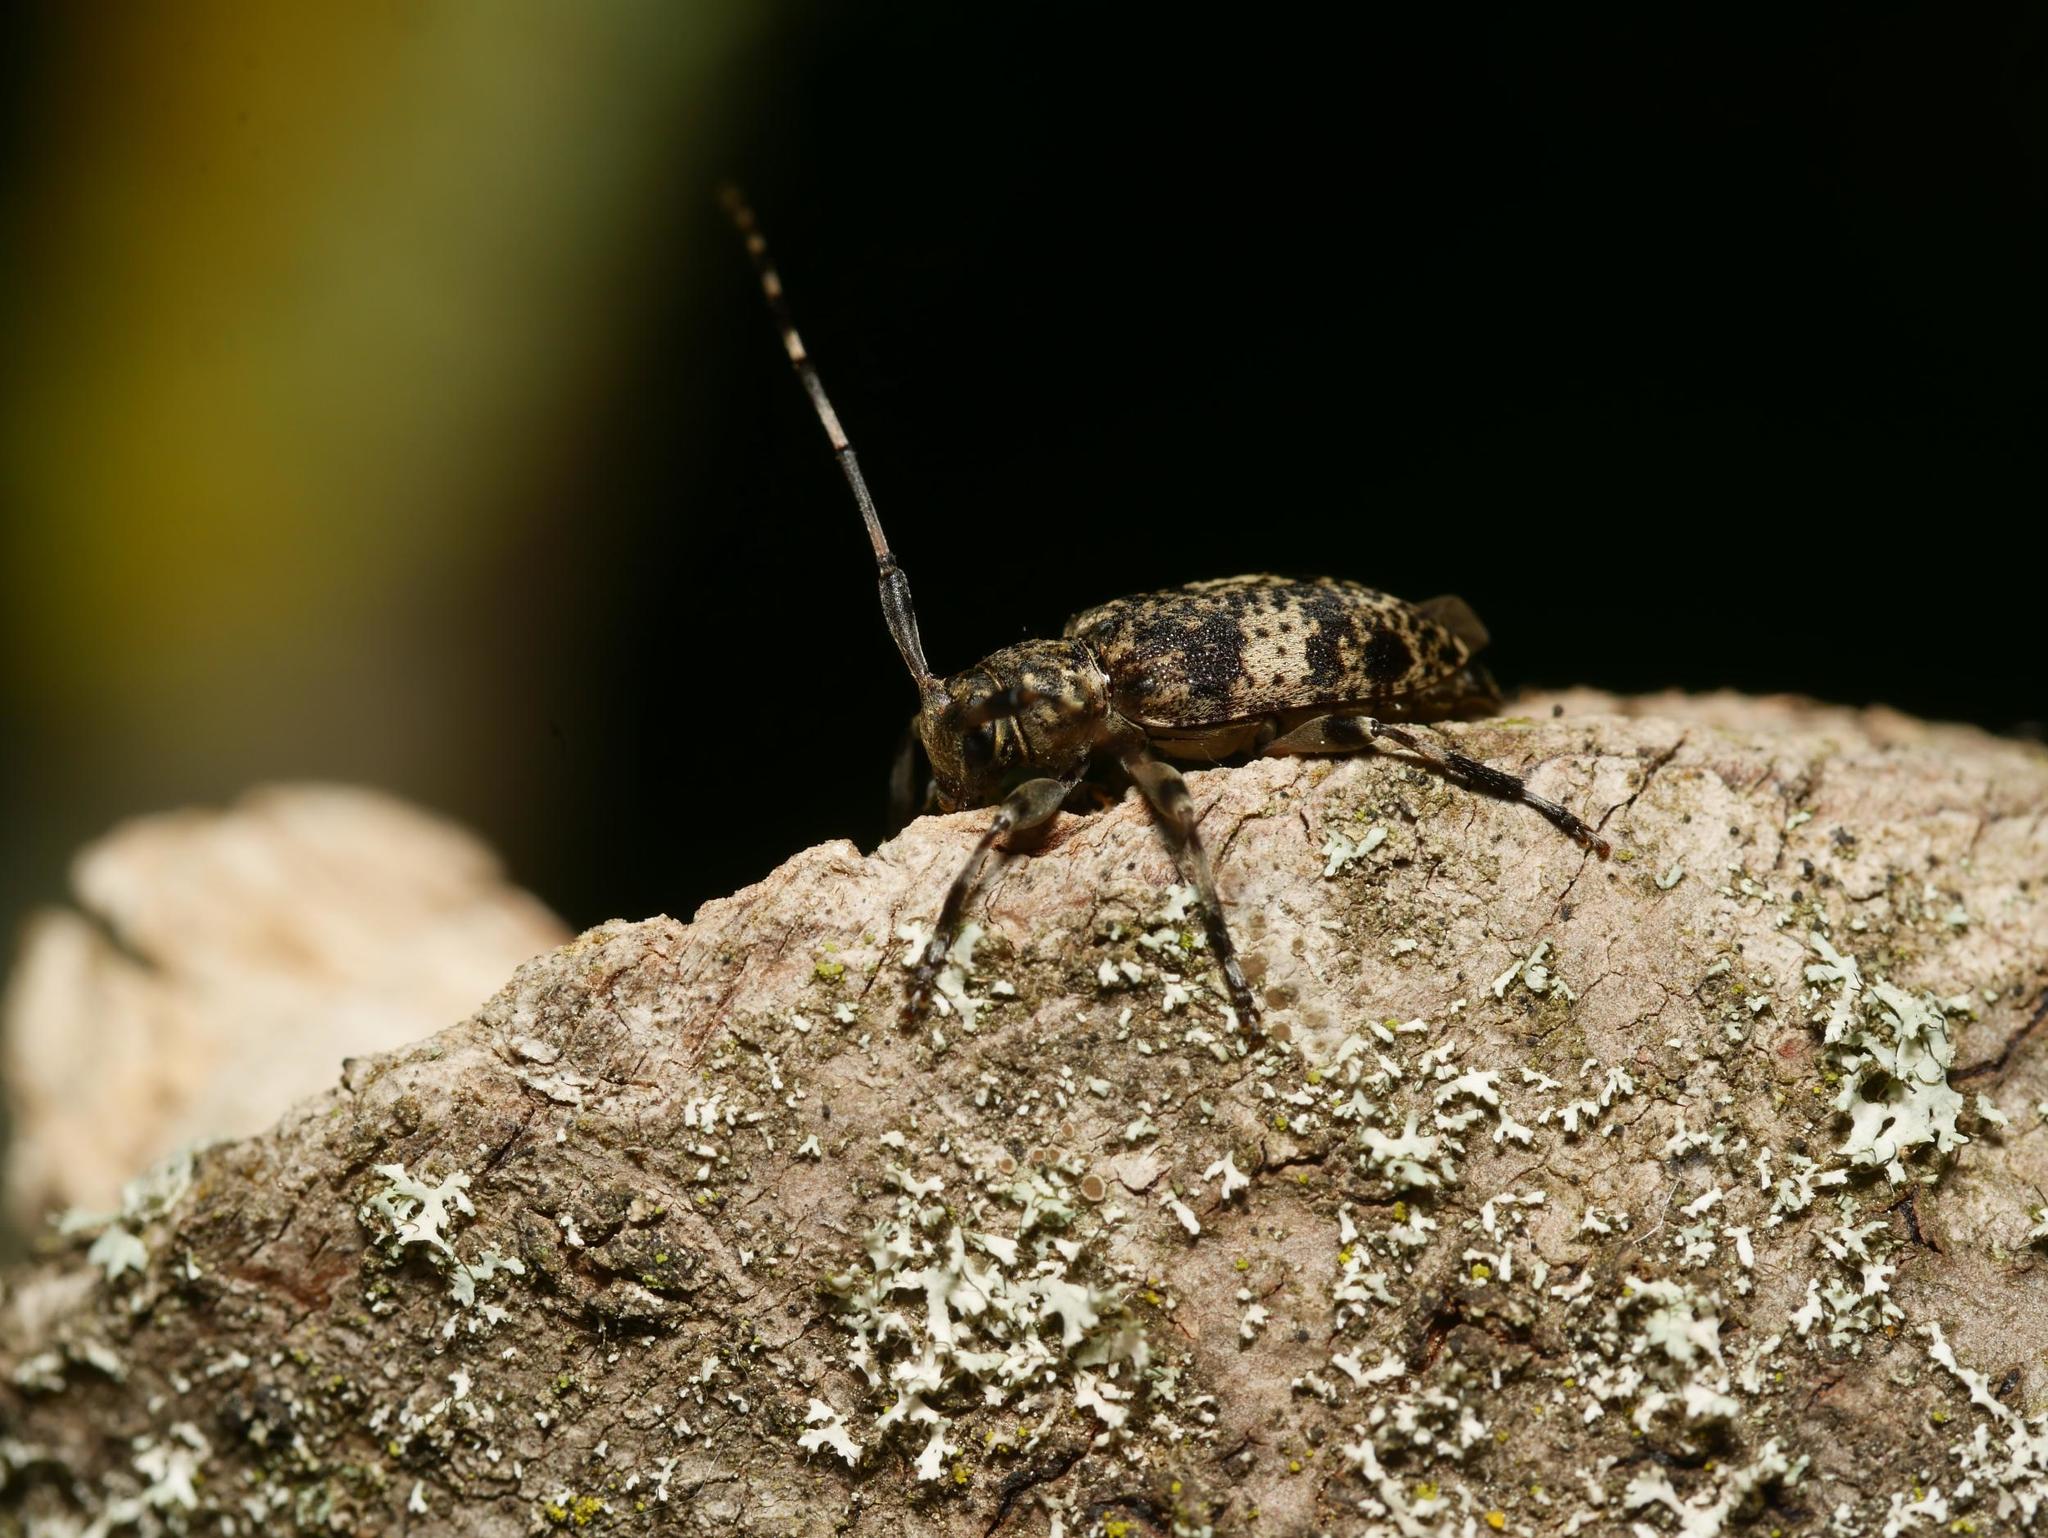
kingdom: Animalia
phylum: Arthropoda
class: Insecta
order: Coleoptera
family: Cerambycidae
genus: Leiopus
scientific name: Leiopus linnei
